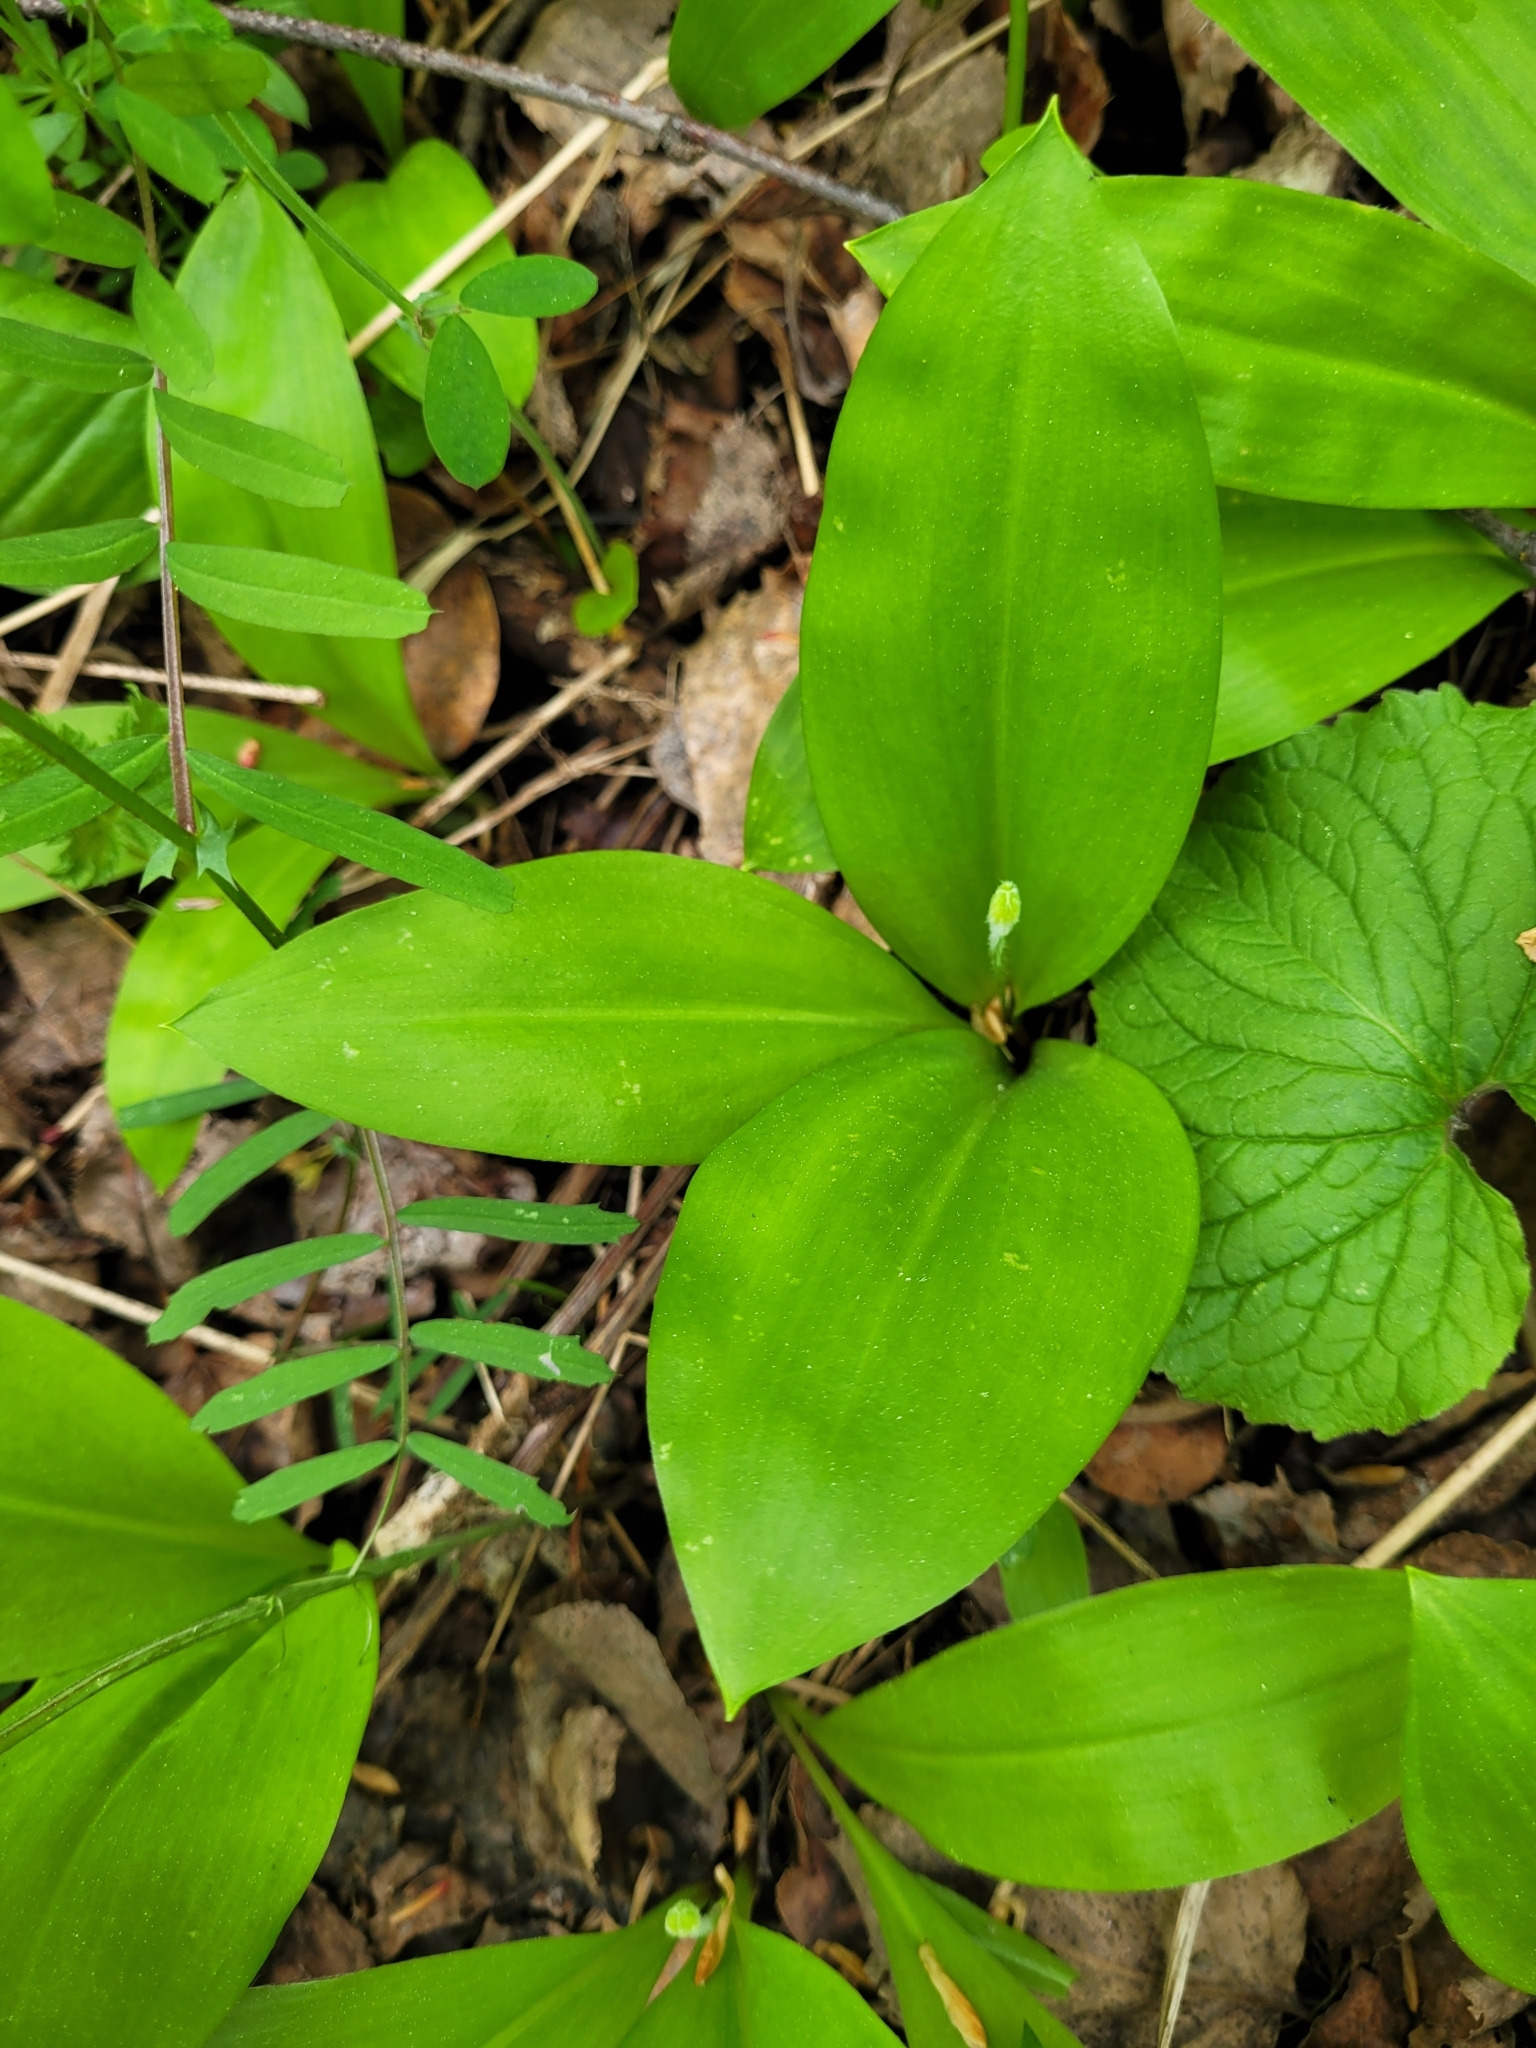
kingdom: Plantae
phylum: Tracheophyta
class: Liliopsida
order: Liliales
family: Liliaceae
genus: Clintonia
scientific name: Clintonia uniflora
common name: Queen's cup
